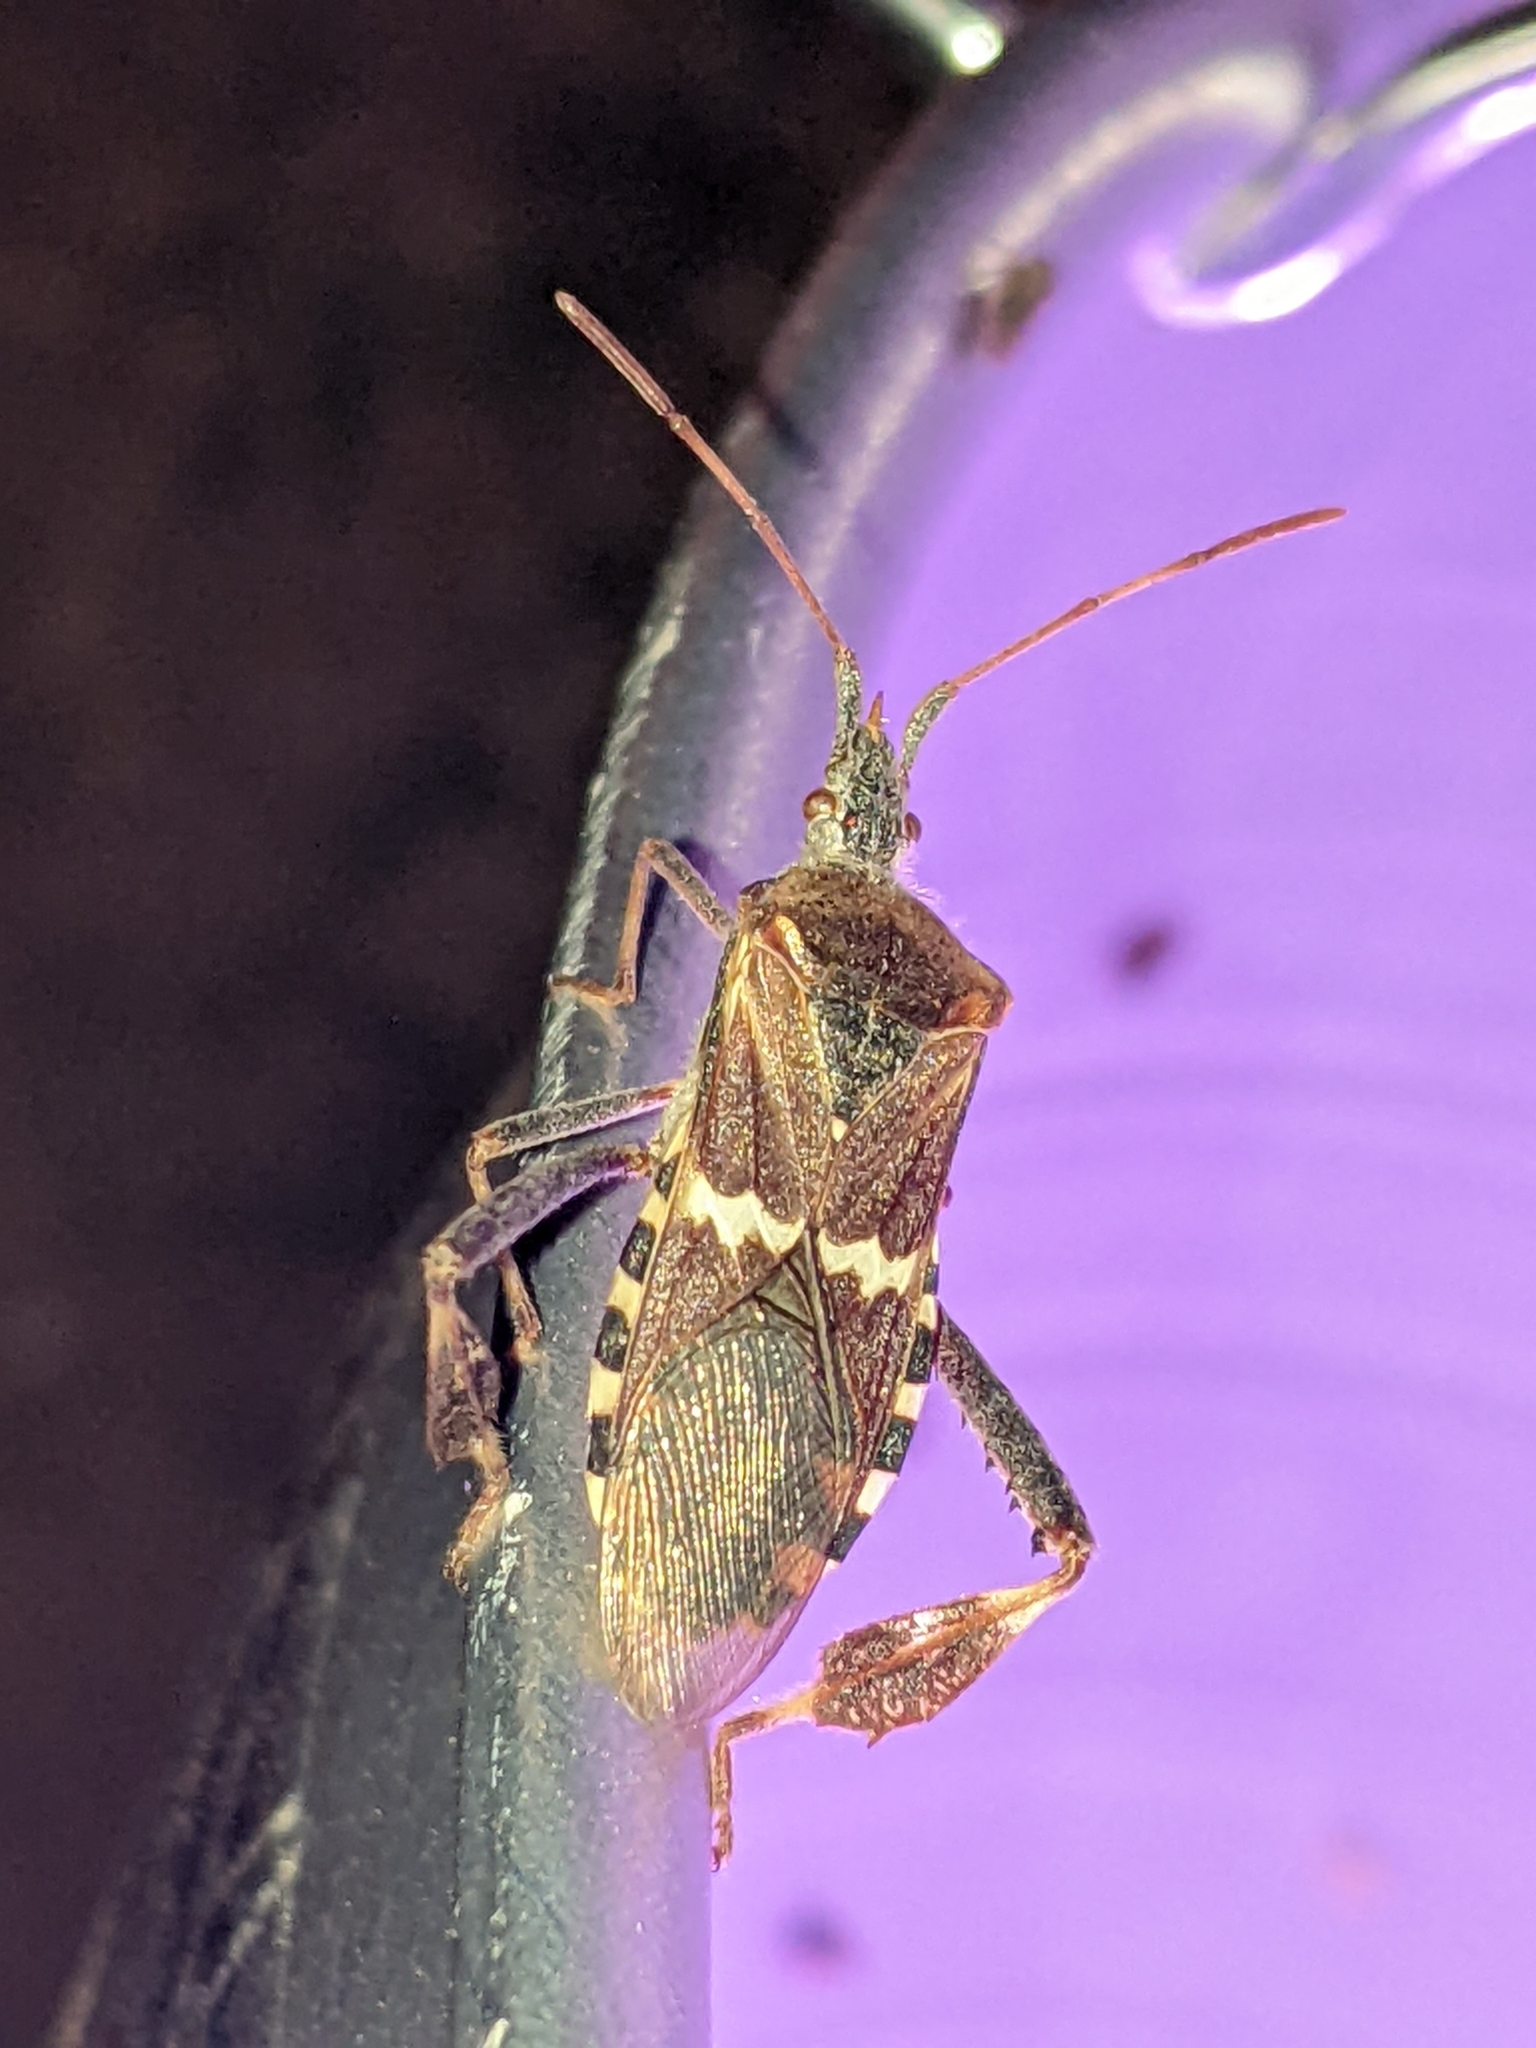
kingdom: Animalia
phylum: Arthropoda
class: Insecta
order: Hemiptera
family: Coreidae
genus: Leptoglossus
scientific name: Leptoglossus clypealis
